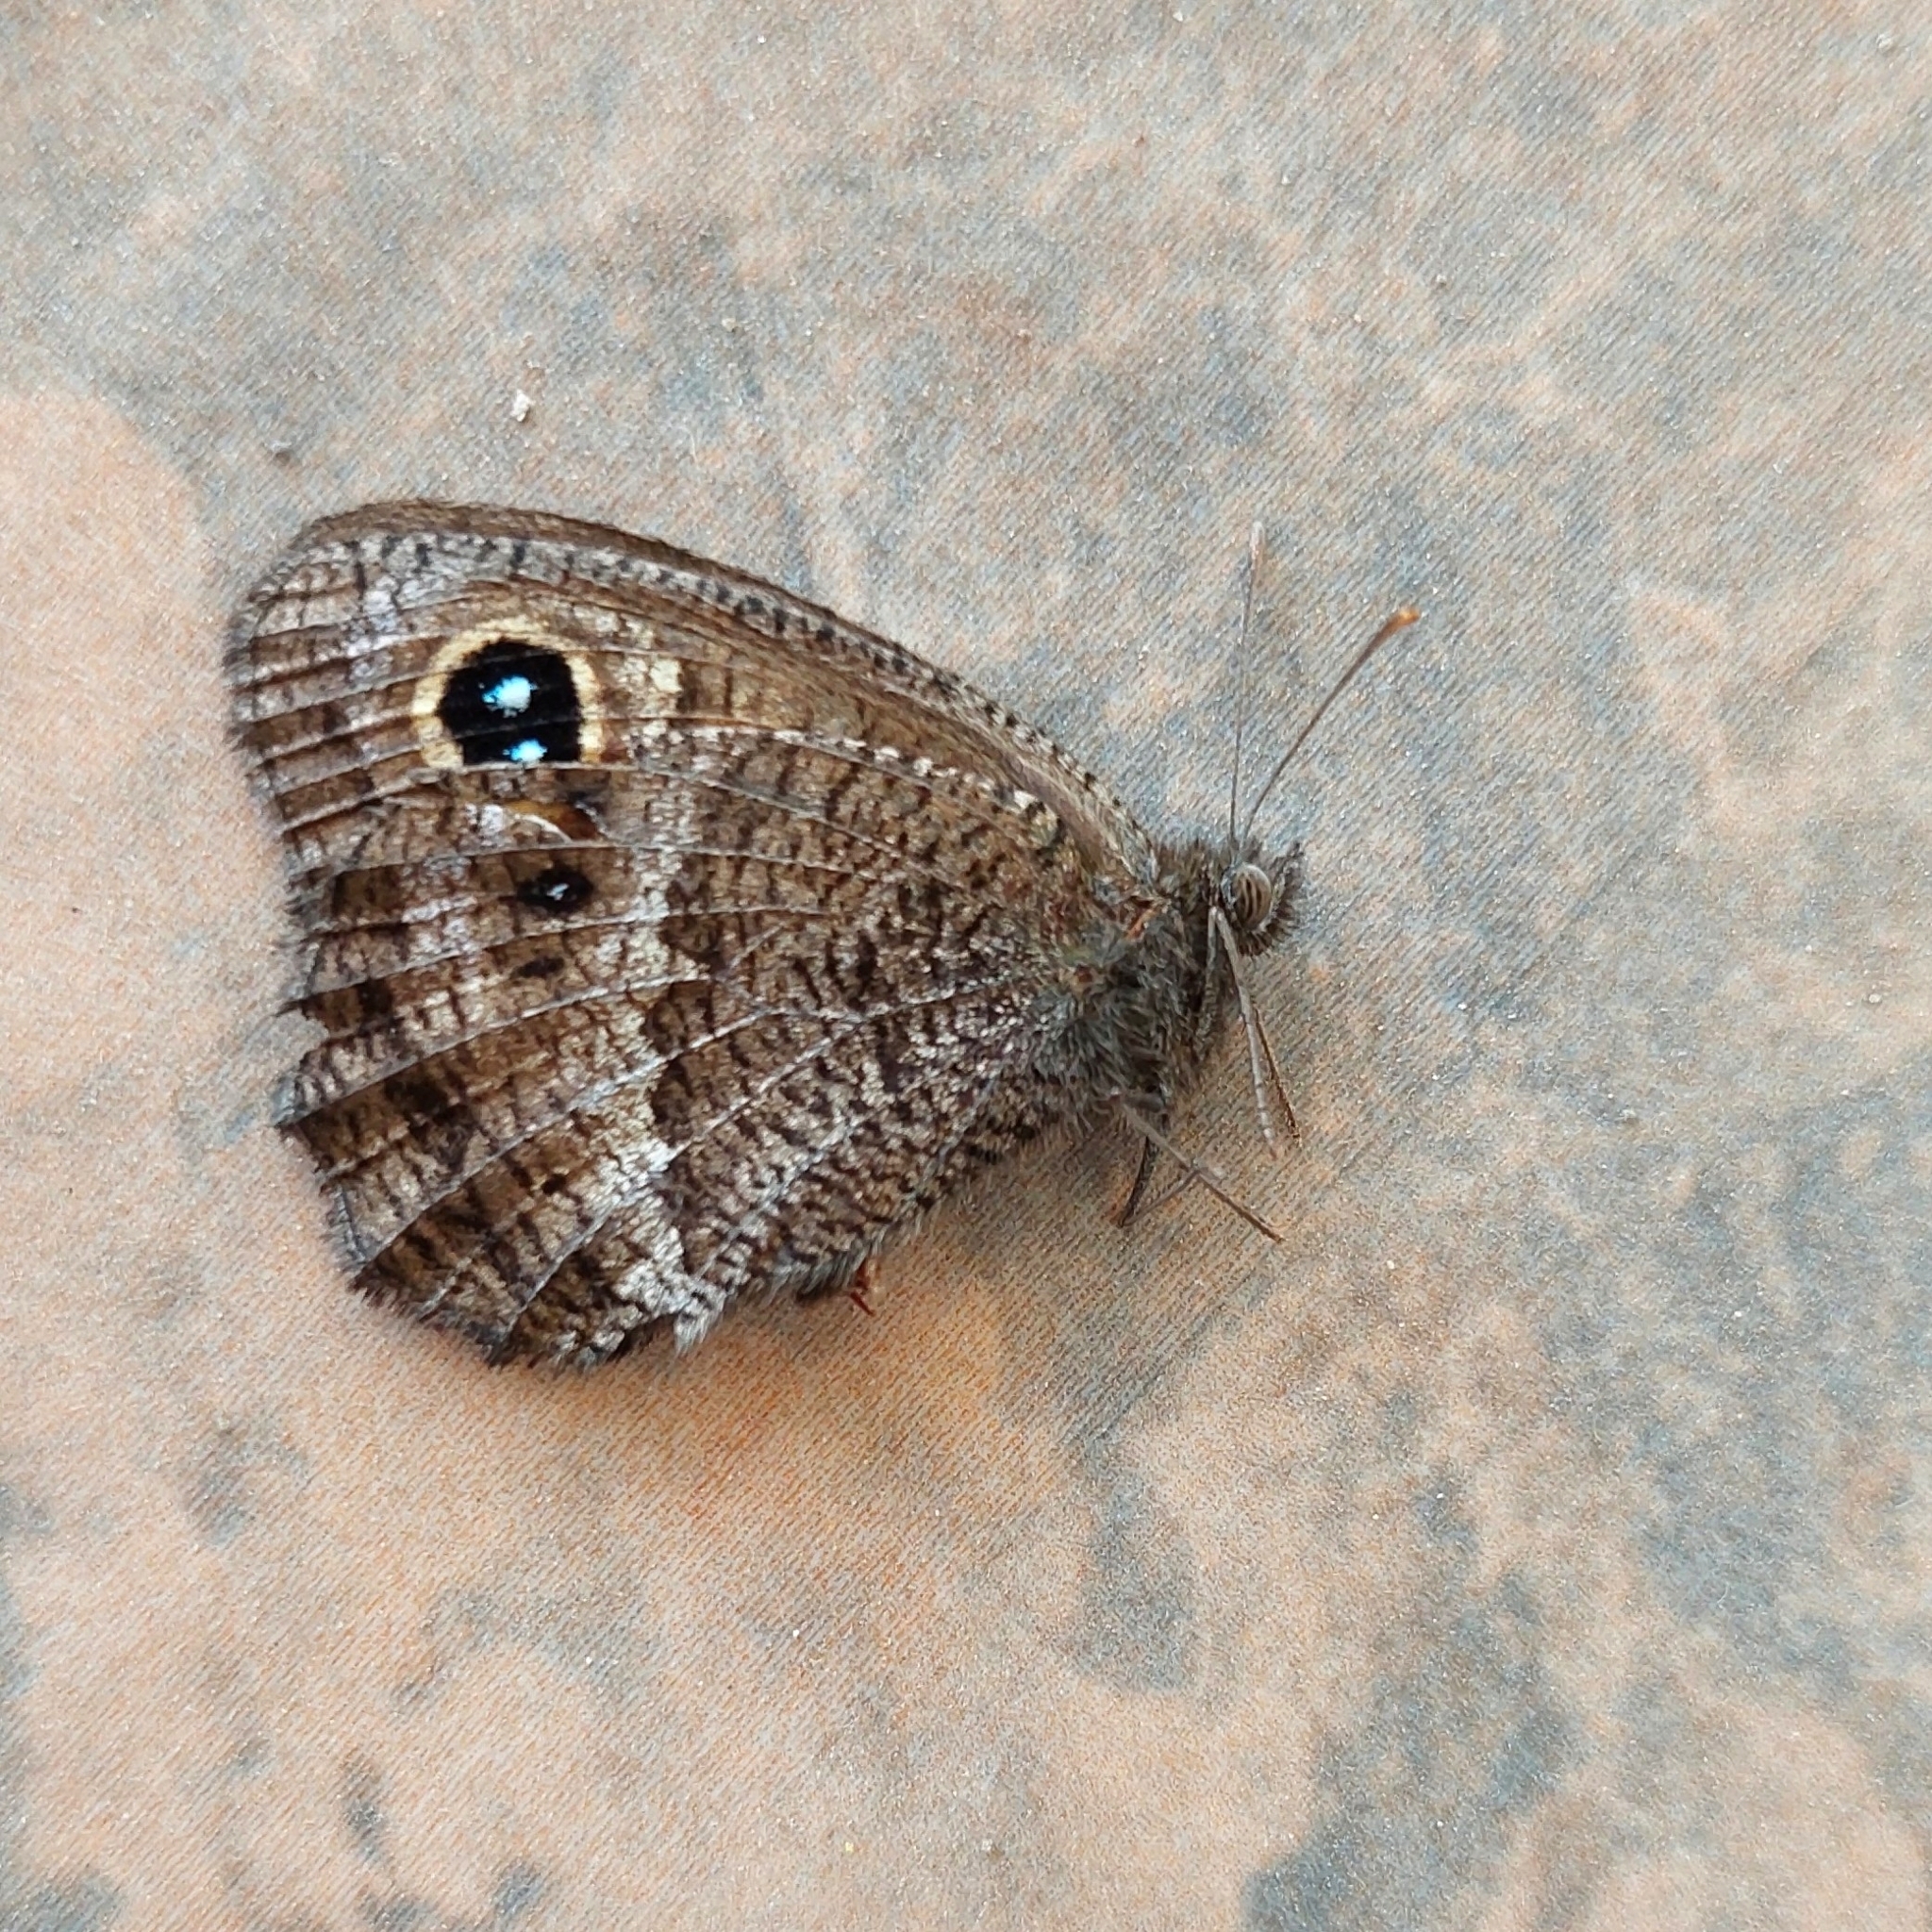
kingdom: Animalia
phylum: Arthropoda
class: Insecta
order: Lepidoptera
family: Nymphalidae
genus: Pampasatyrus
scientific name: Pampasatyrus quies
